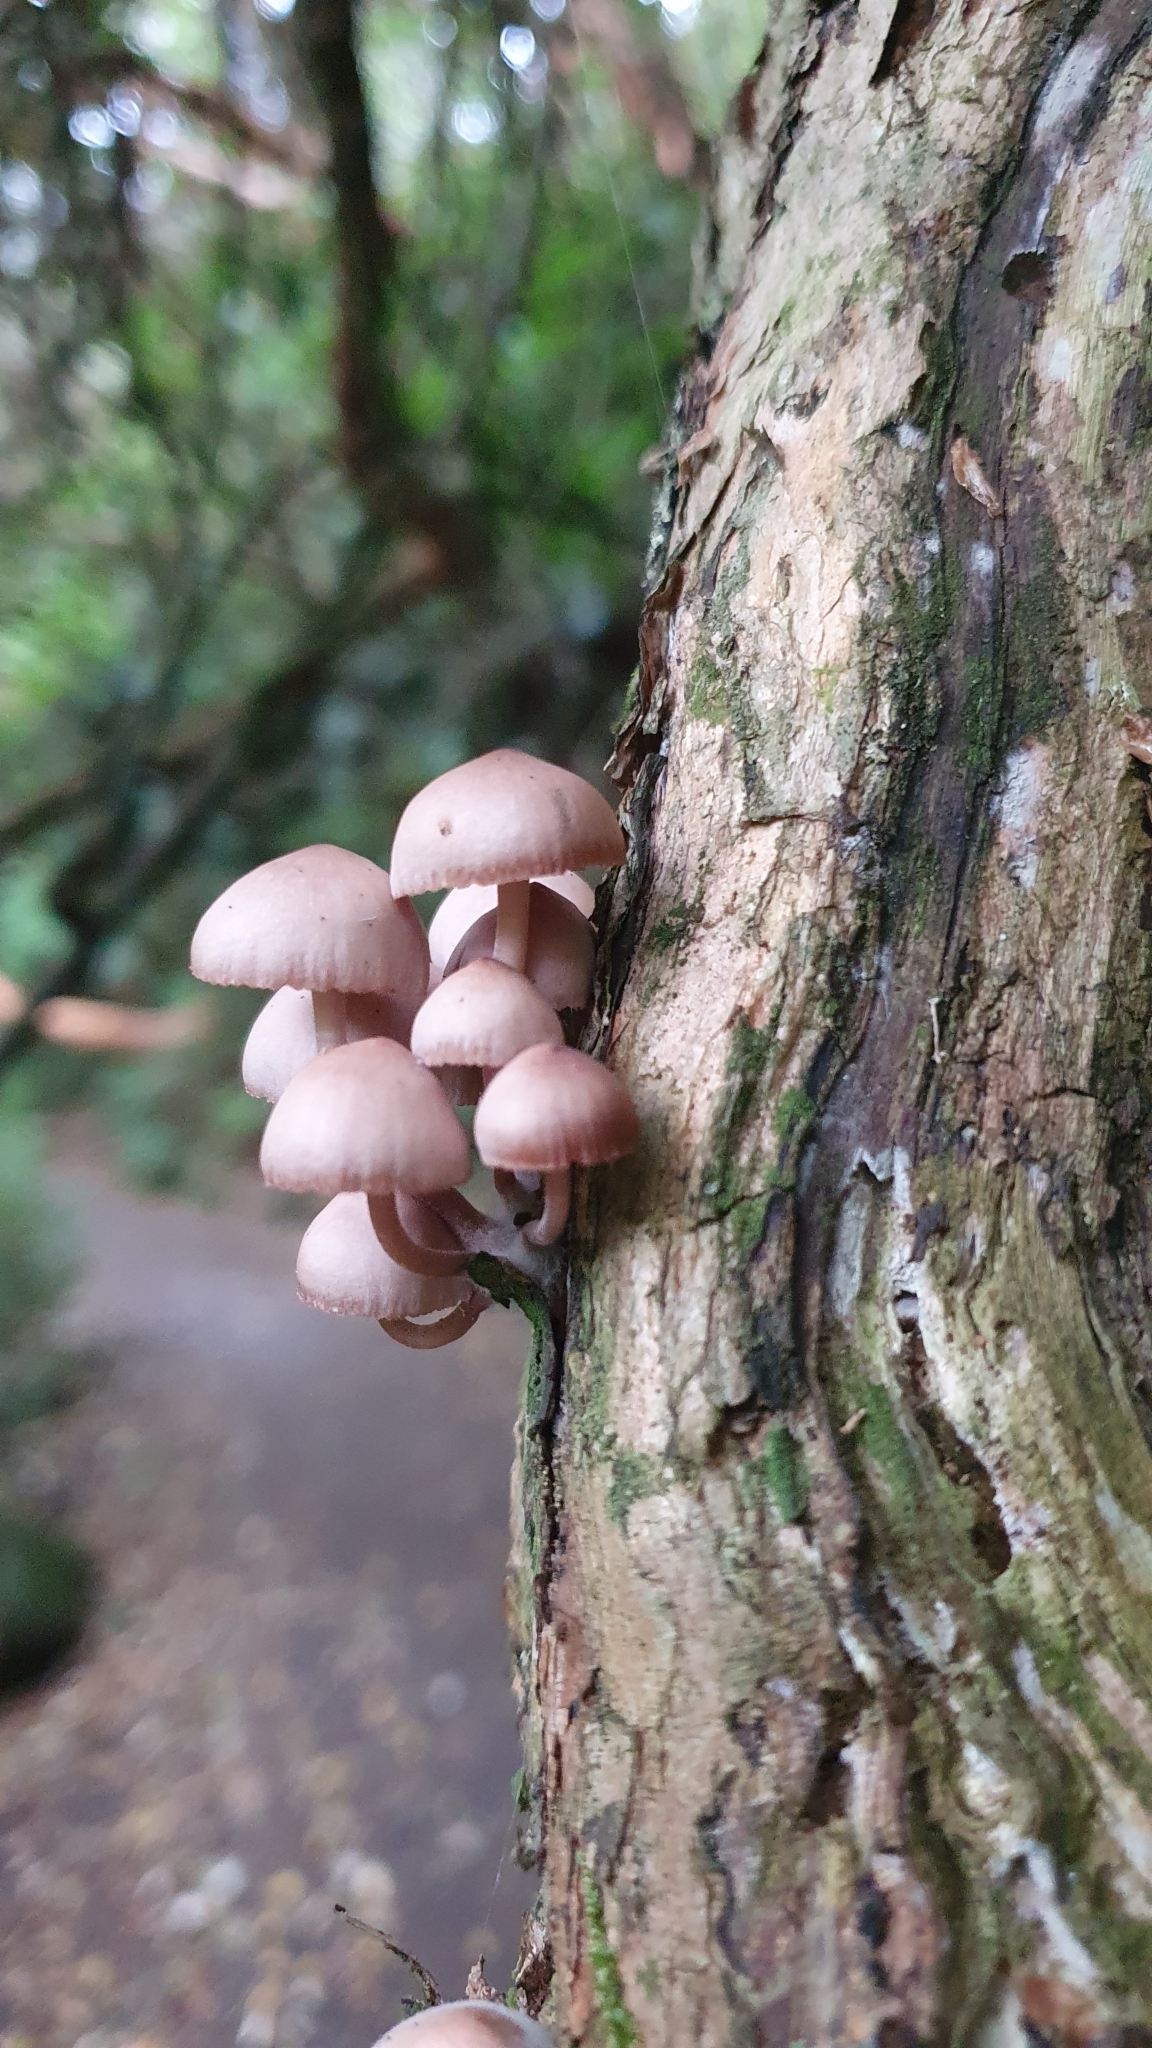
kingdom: Fungi
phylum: Basidiomycota
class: Agaricomycetes
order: Agaricales
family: Mycenaceae
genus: Mycena
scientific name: Mycena clarkeana
